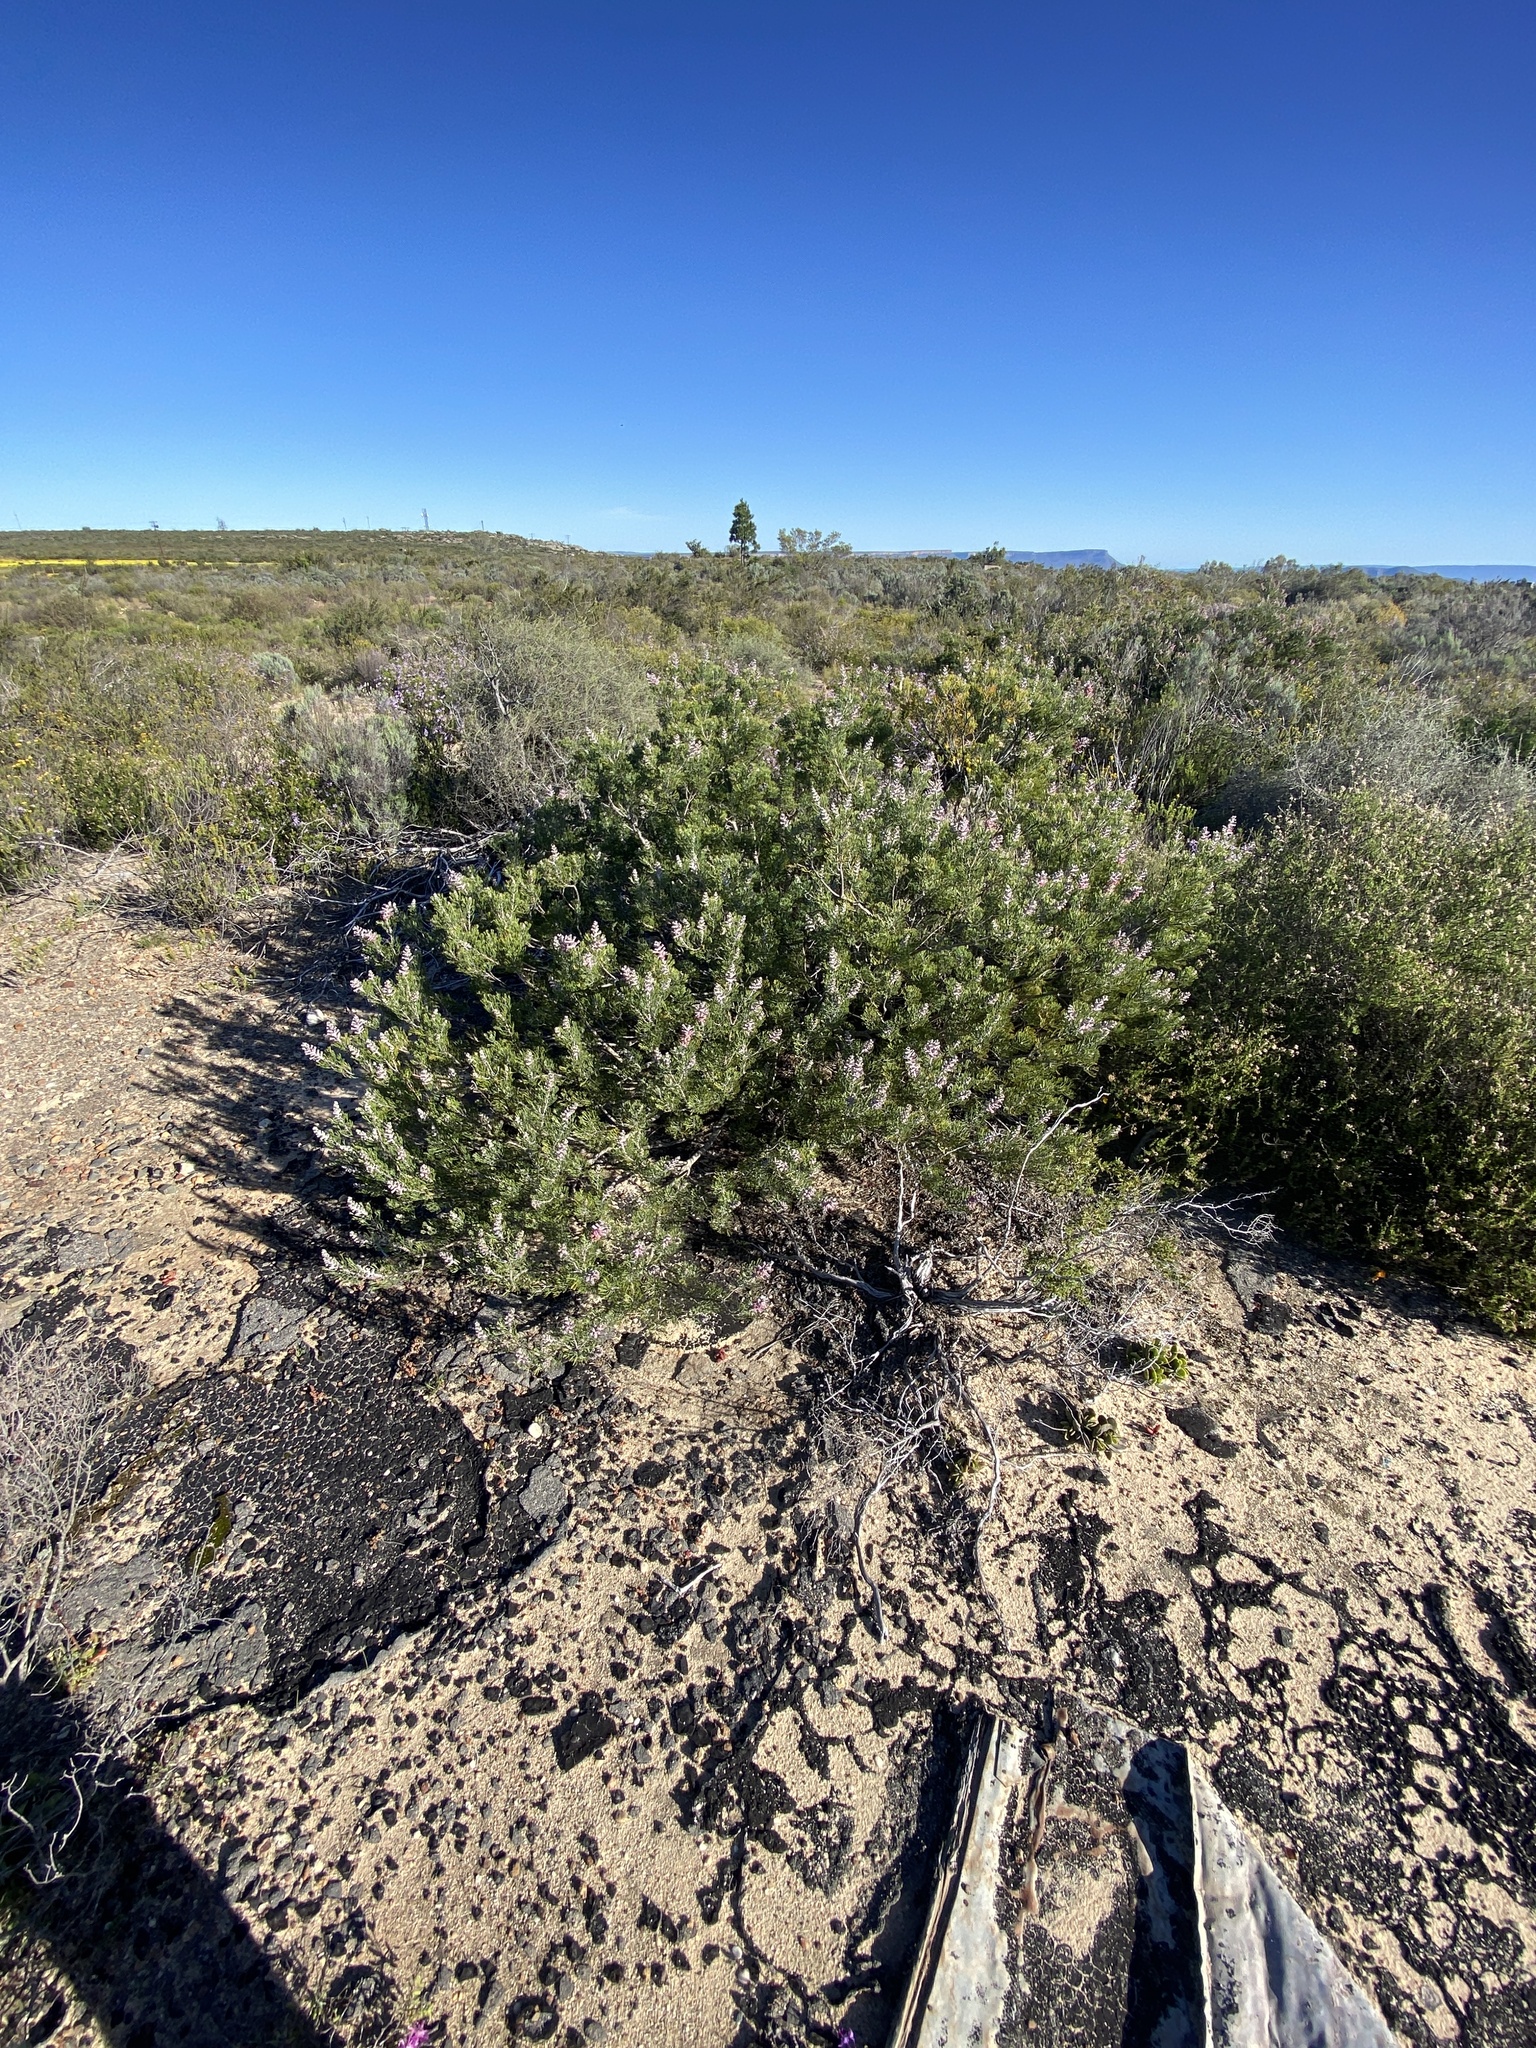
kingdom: Plantae
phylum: Tracheophyta
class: Magnoliopsida
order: Proteales
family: Proteaceae
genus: Paranomus
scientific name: Paranomus bracteolaris
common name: Bokkeveld tree sceptre
